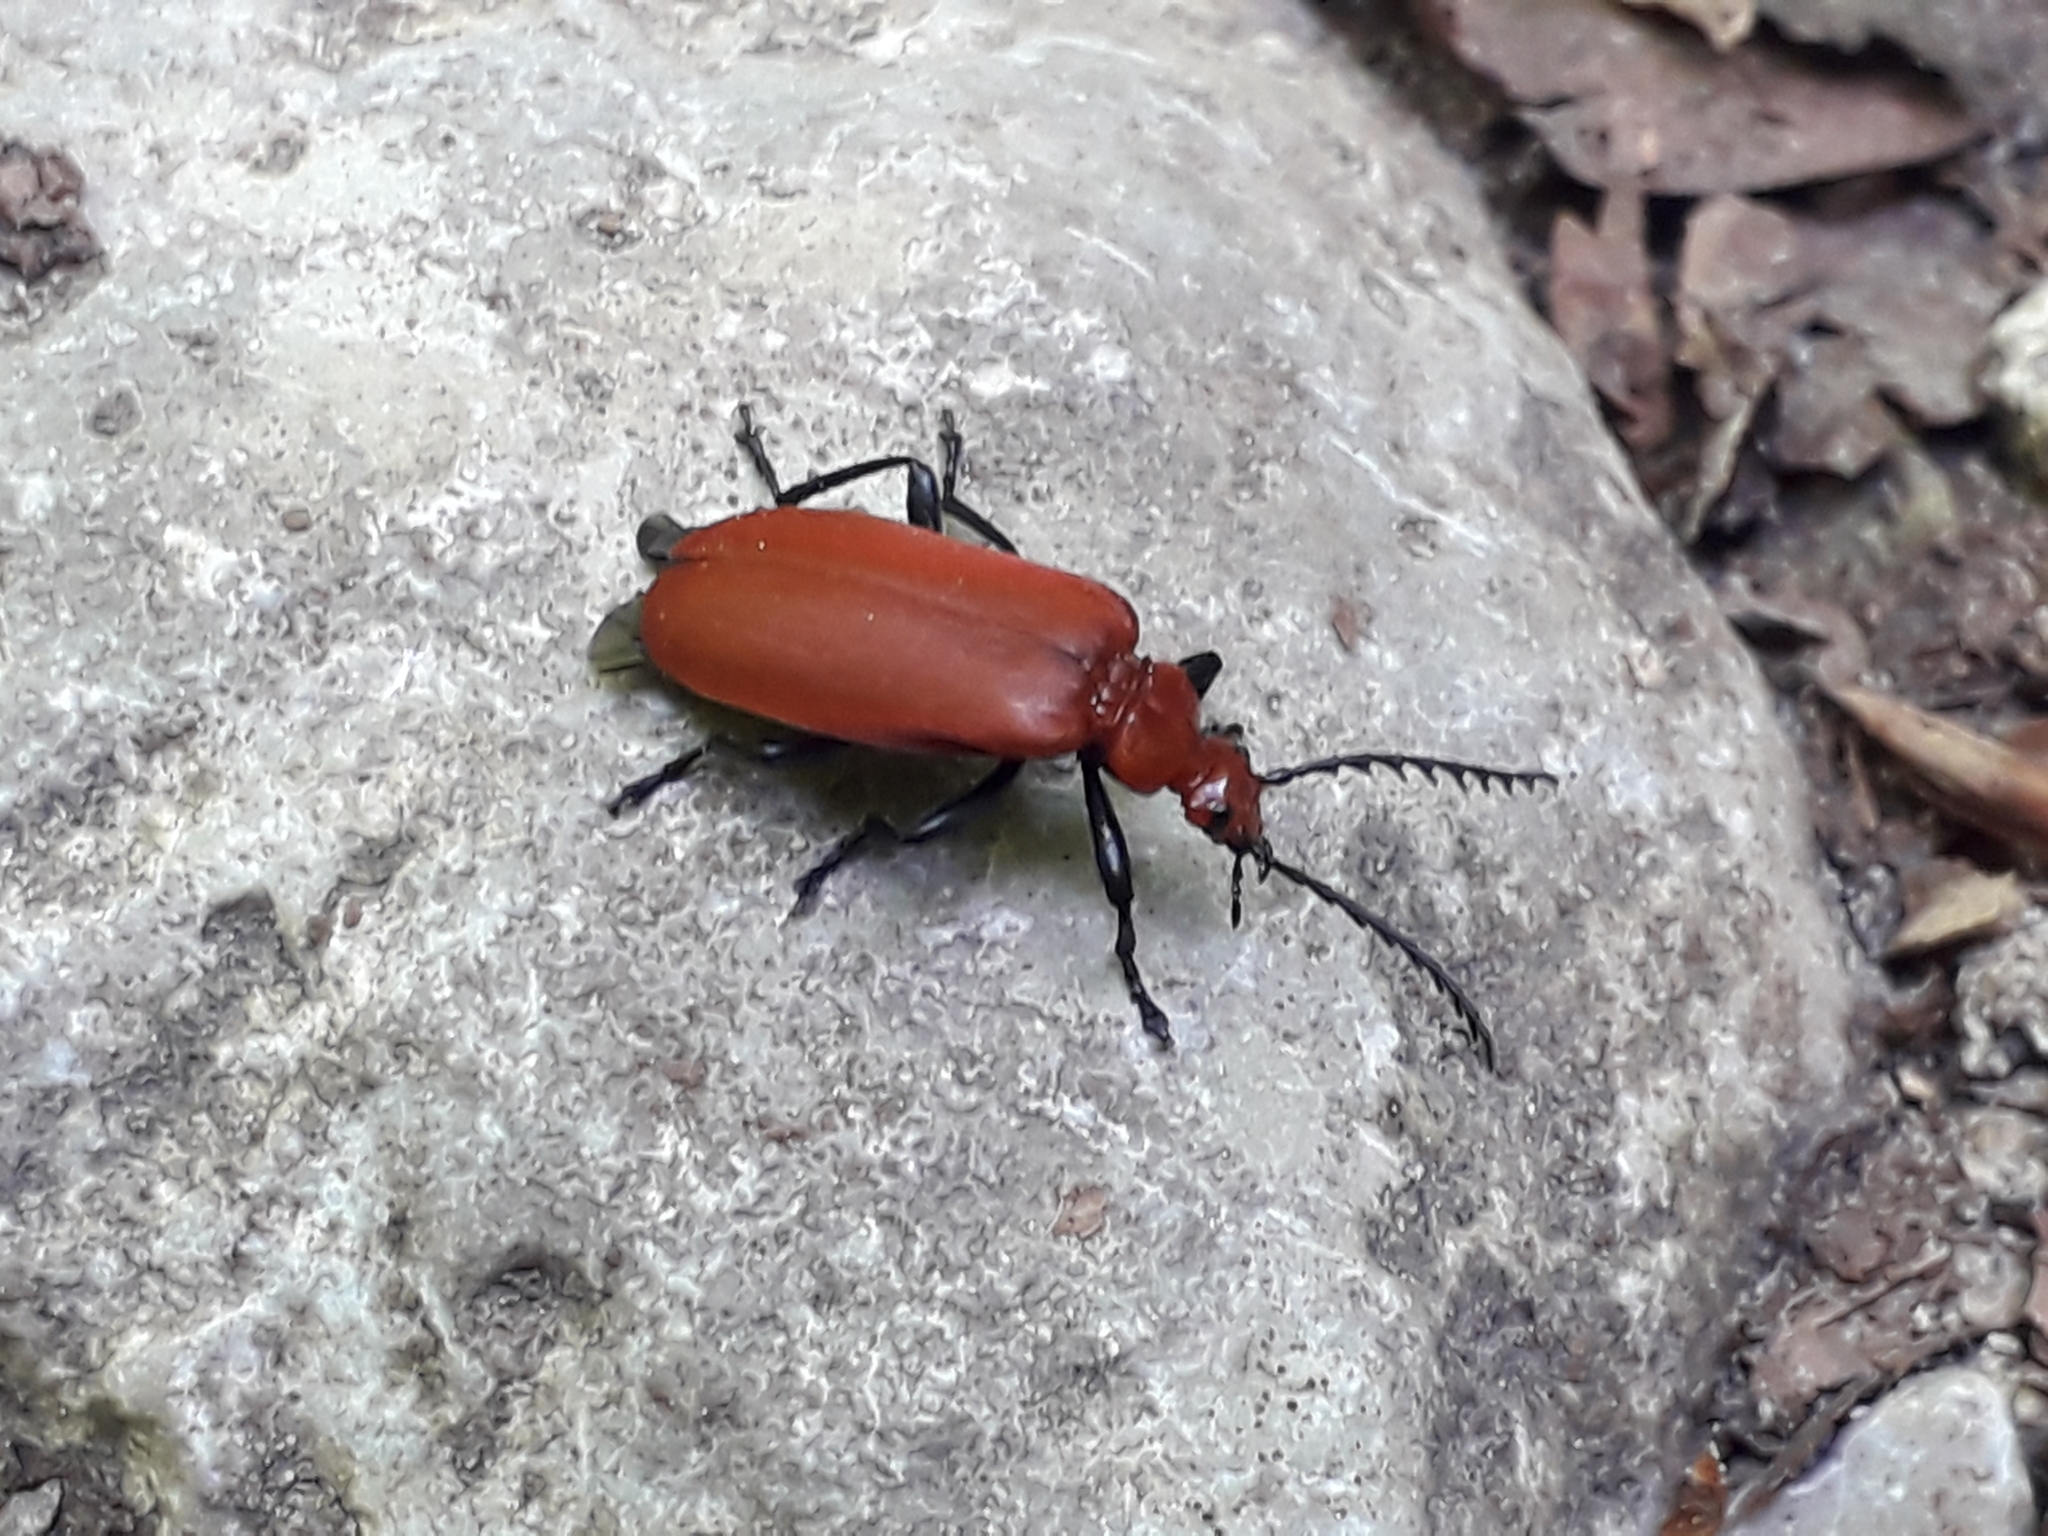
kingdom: Animalia
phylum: Arthropoda
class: Insecta
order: Coleoptera
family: Pyrochroidae
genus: Pyrochroa
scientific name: Pyrochroa serraticornis
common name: Red-headed cardinal beetle
